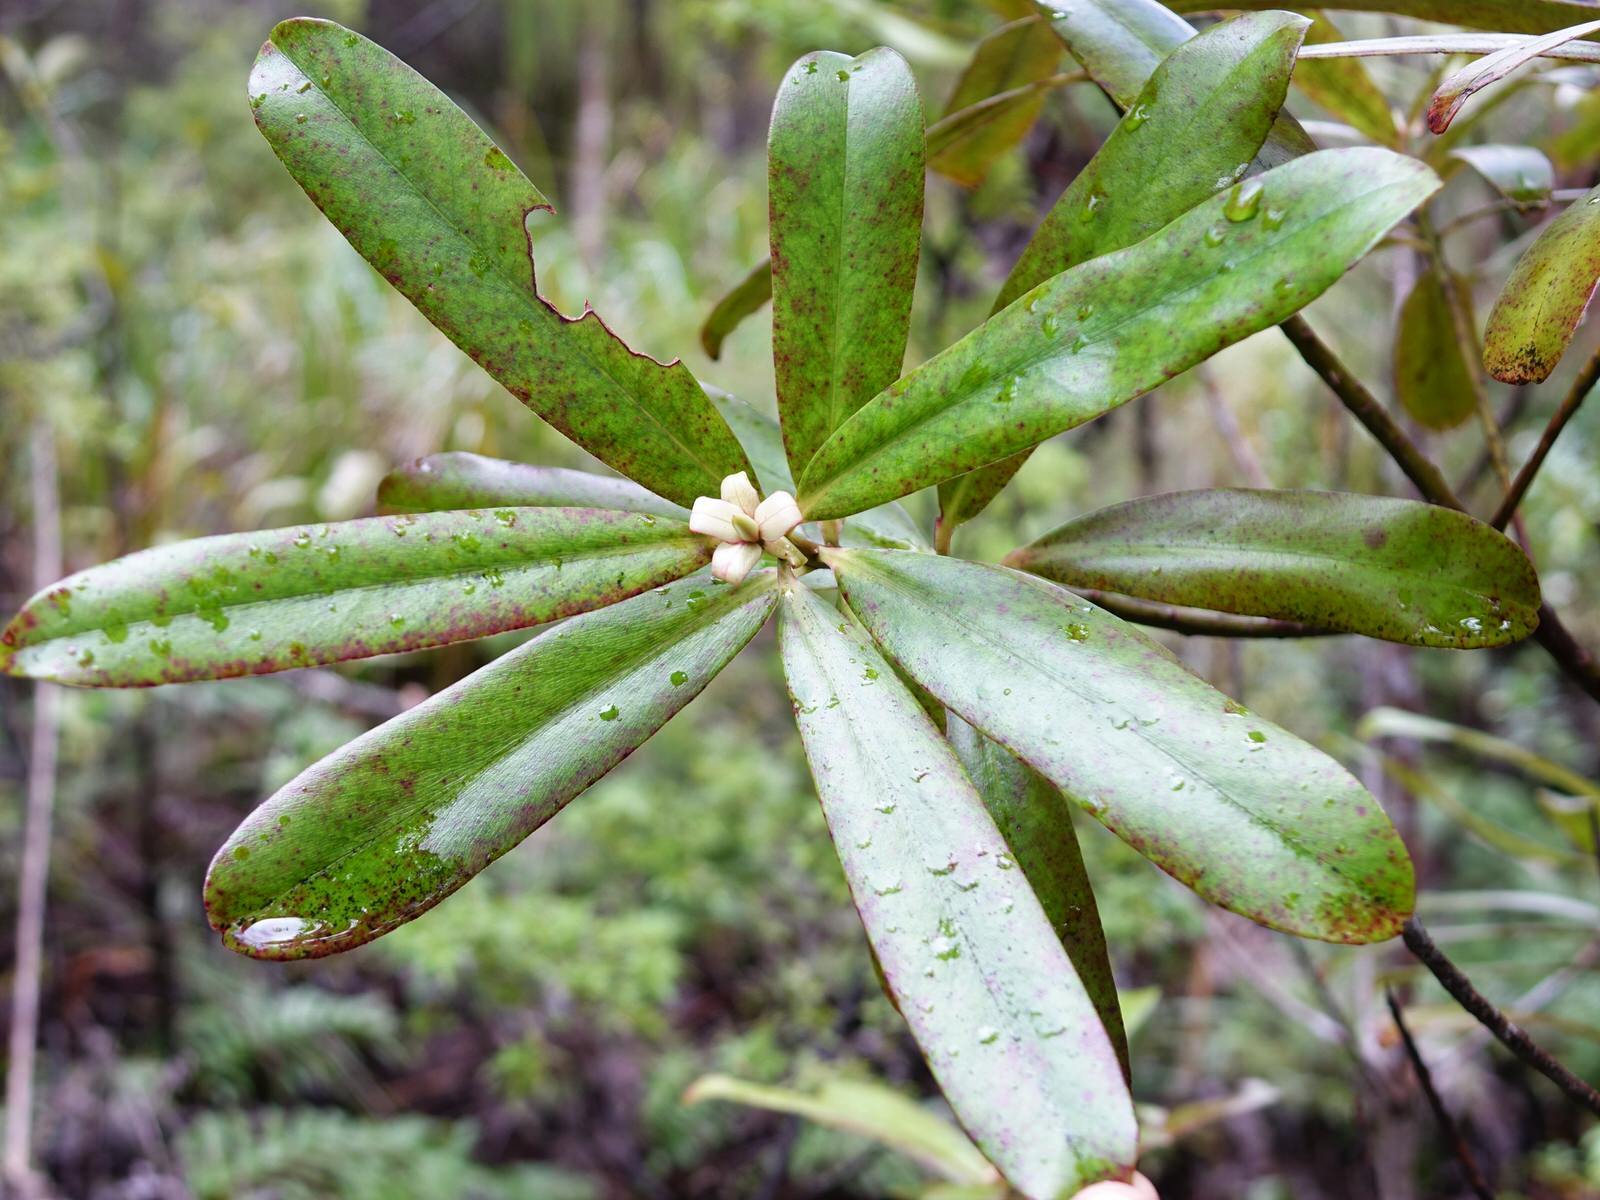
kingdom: Plantae
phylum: Tracheophyta
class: Magnoliopsida
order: Ericales
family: Primulaceae
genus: Myrsine
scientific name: Myrsine salicina
